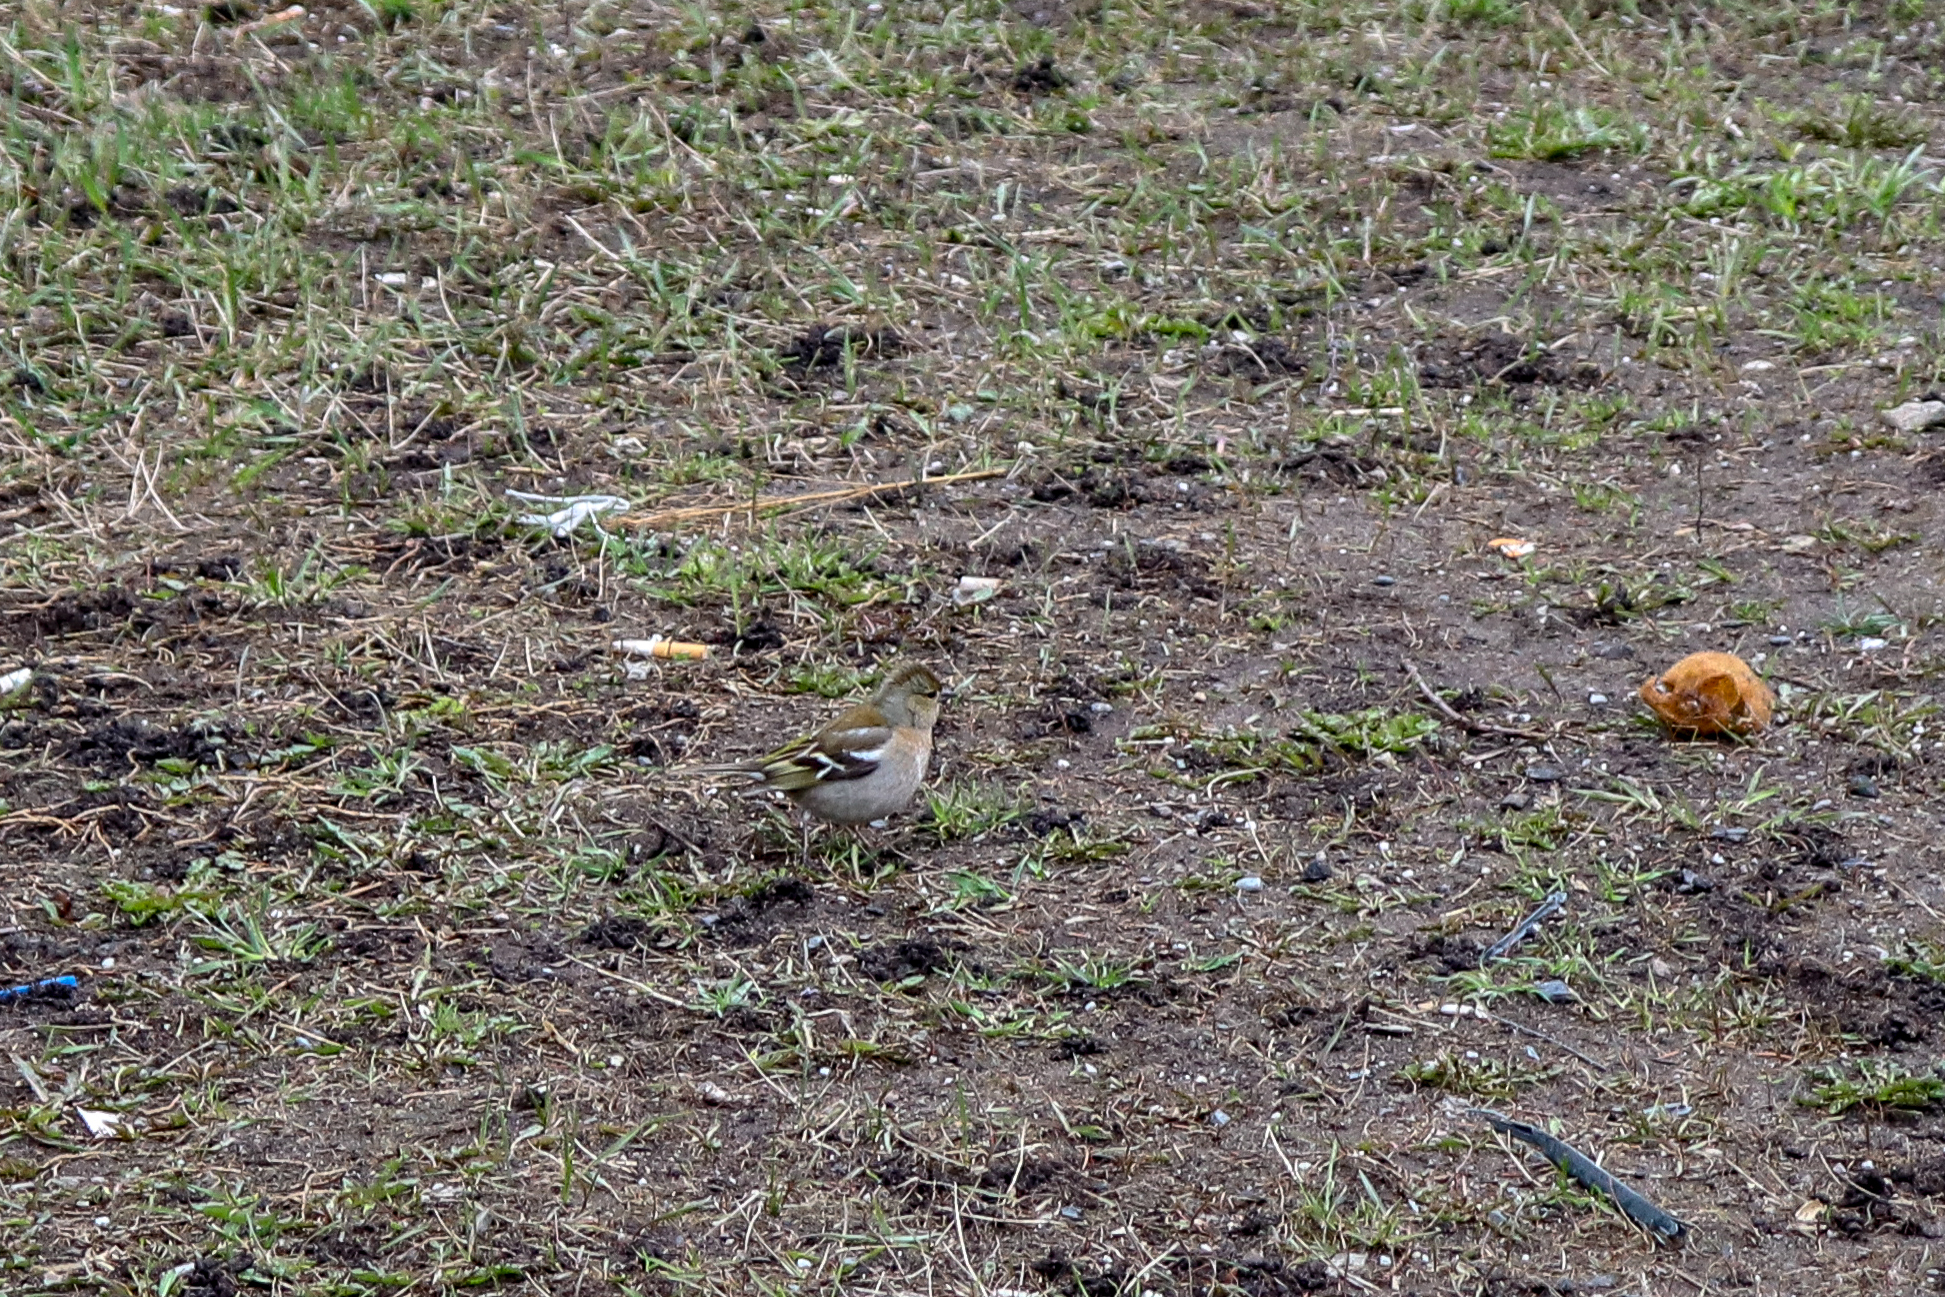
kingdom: Animalia
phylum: Chordata
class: Aves
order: Passeriformes
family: Fringillidae
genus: Fringilla
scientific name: Fringilla coelebs
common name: Common chaffinch
